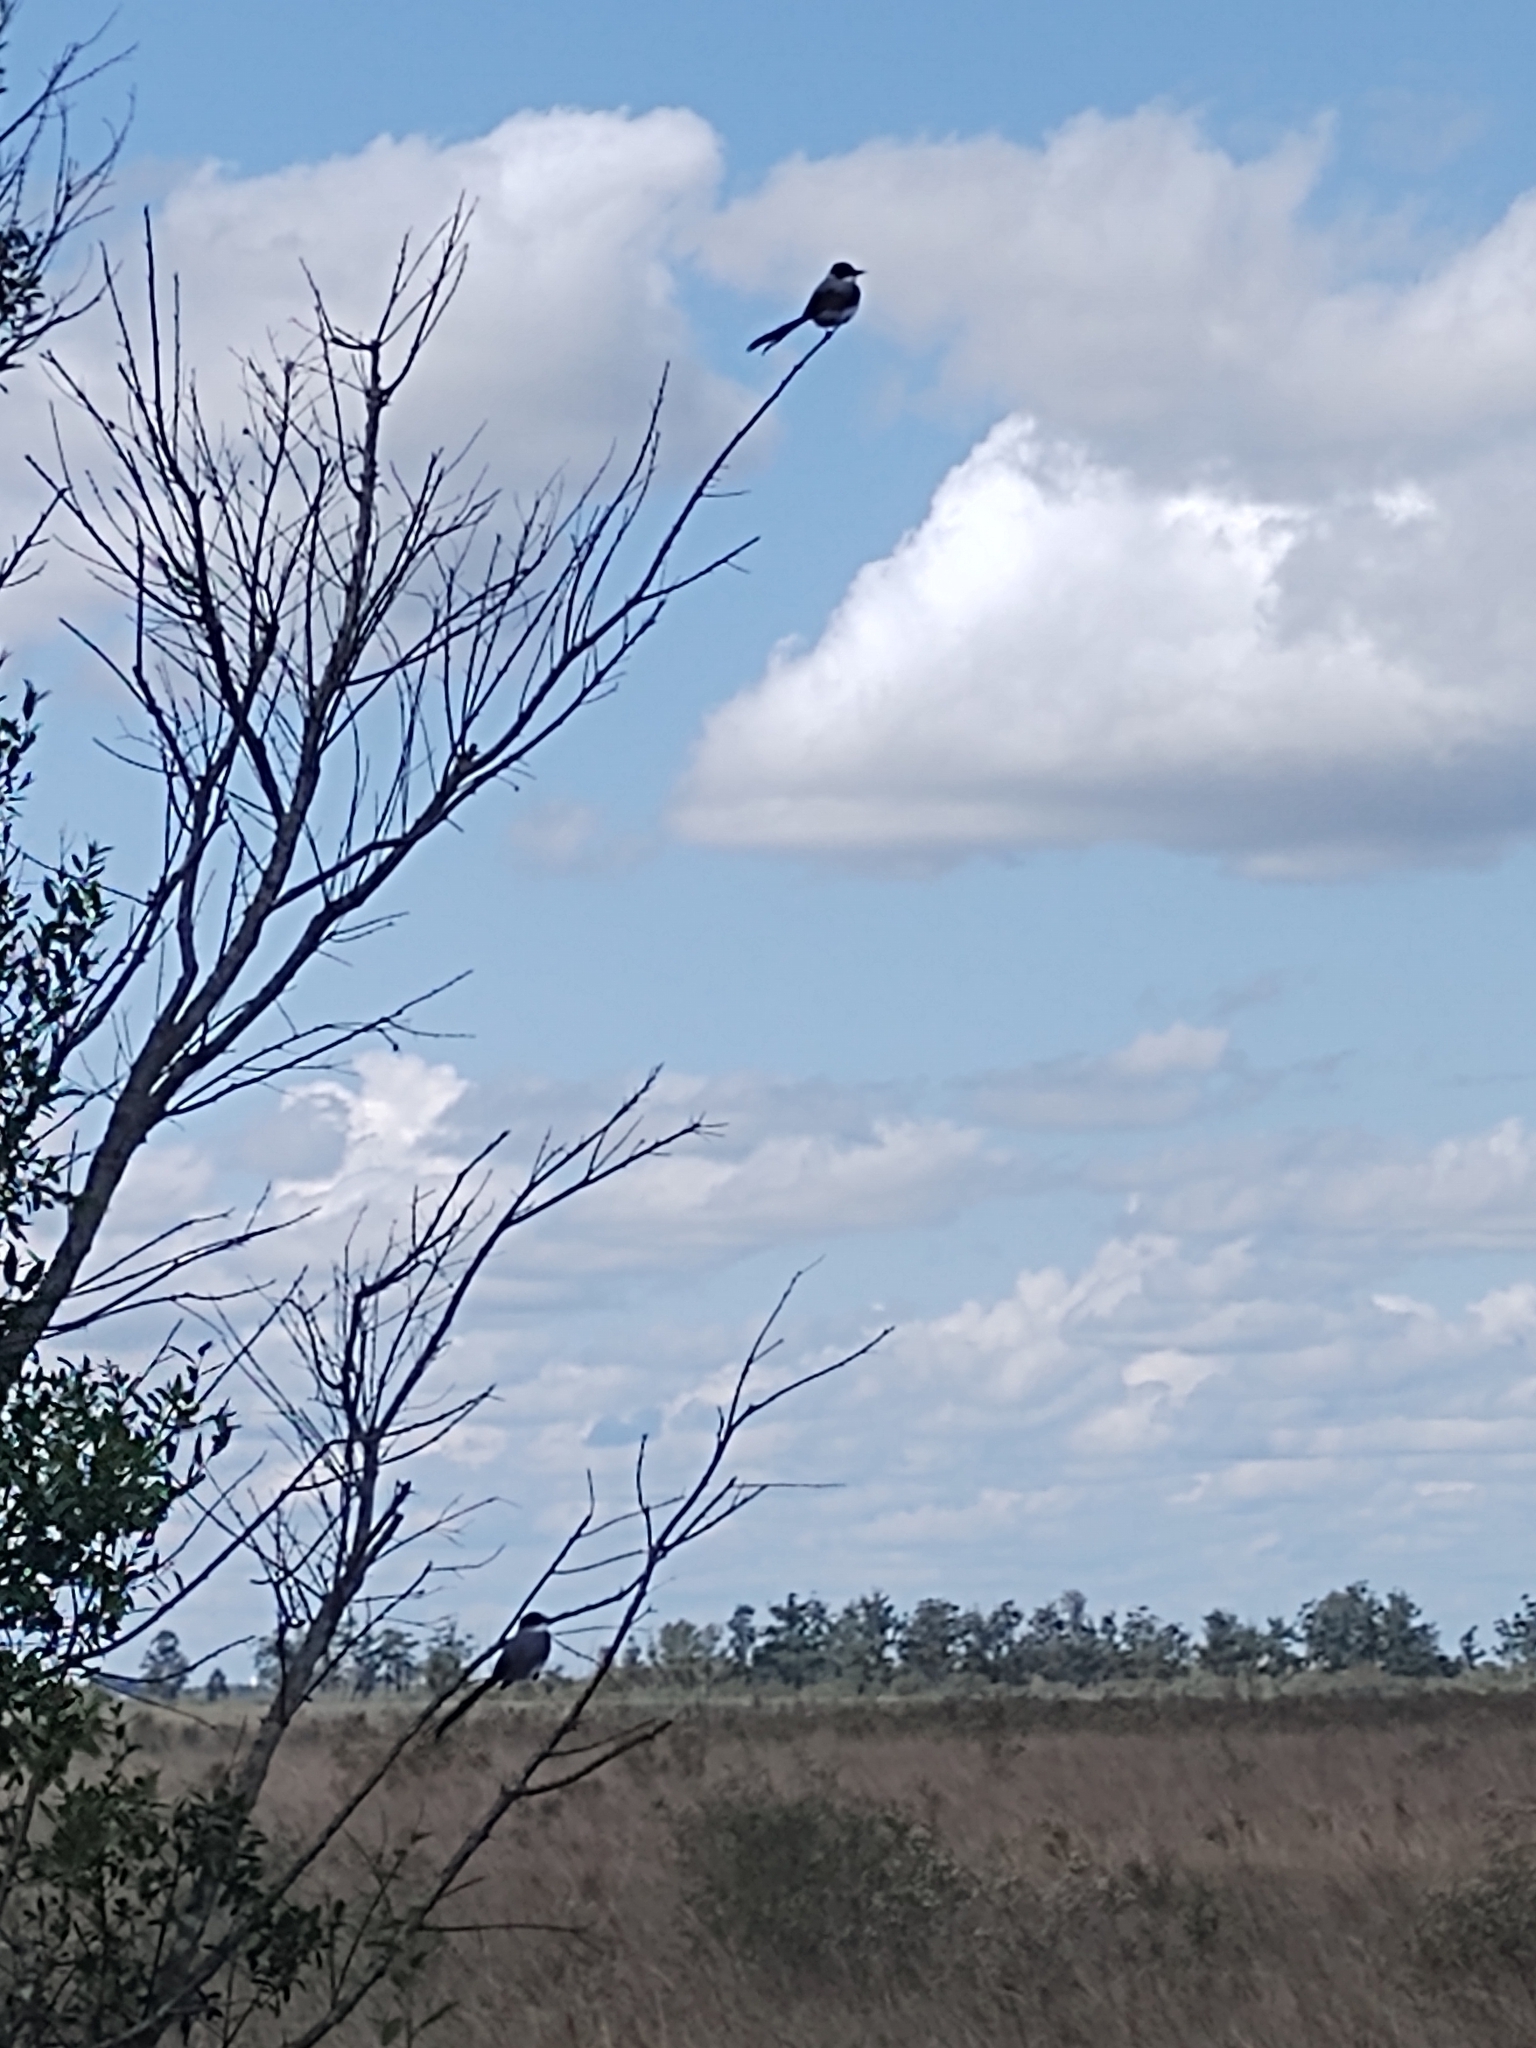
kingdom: Animalia
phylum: Chordata
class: Aves
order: Passeriformes
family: Tyrannidae
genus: Tyrannus
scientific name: Tyrannus savana
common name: Fork-tailed flycatcher
